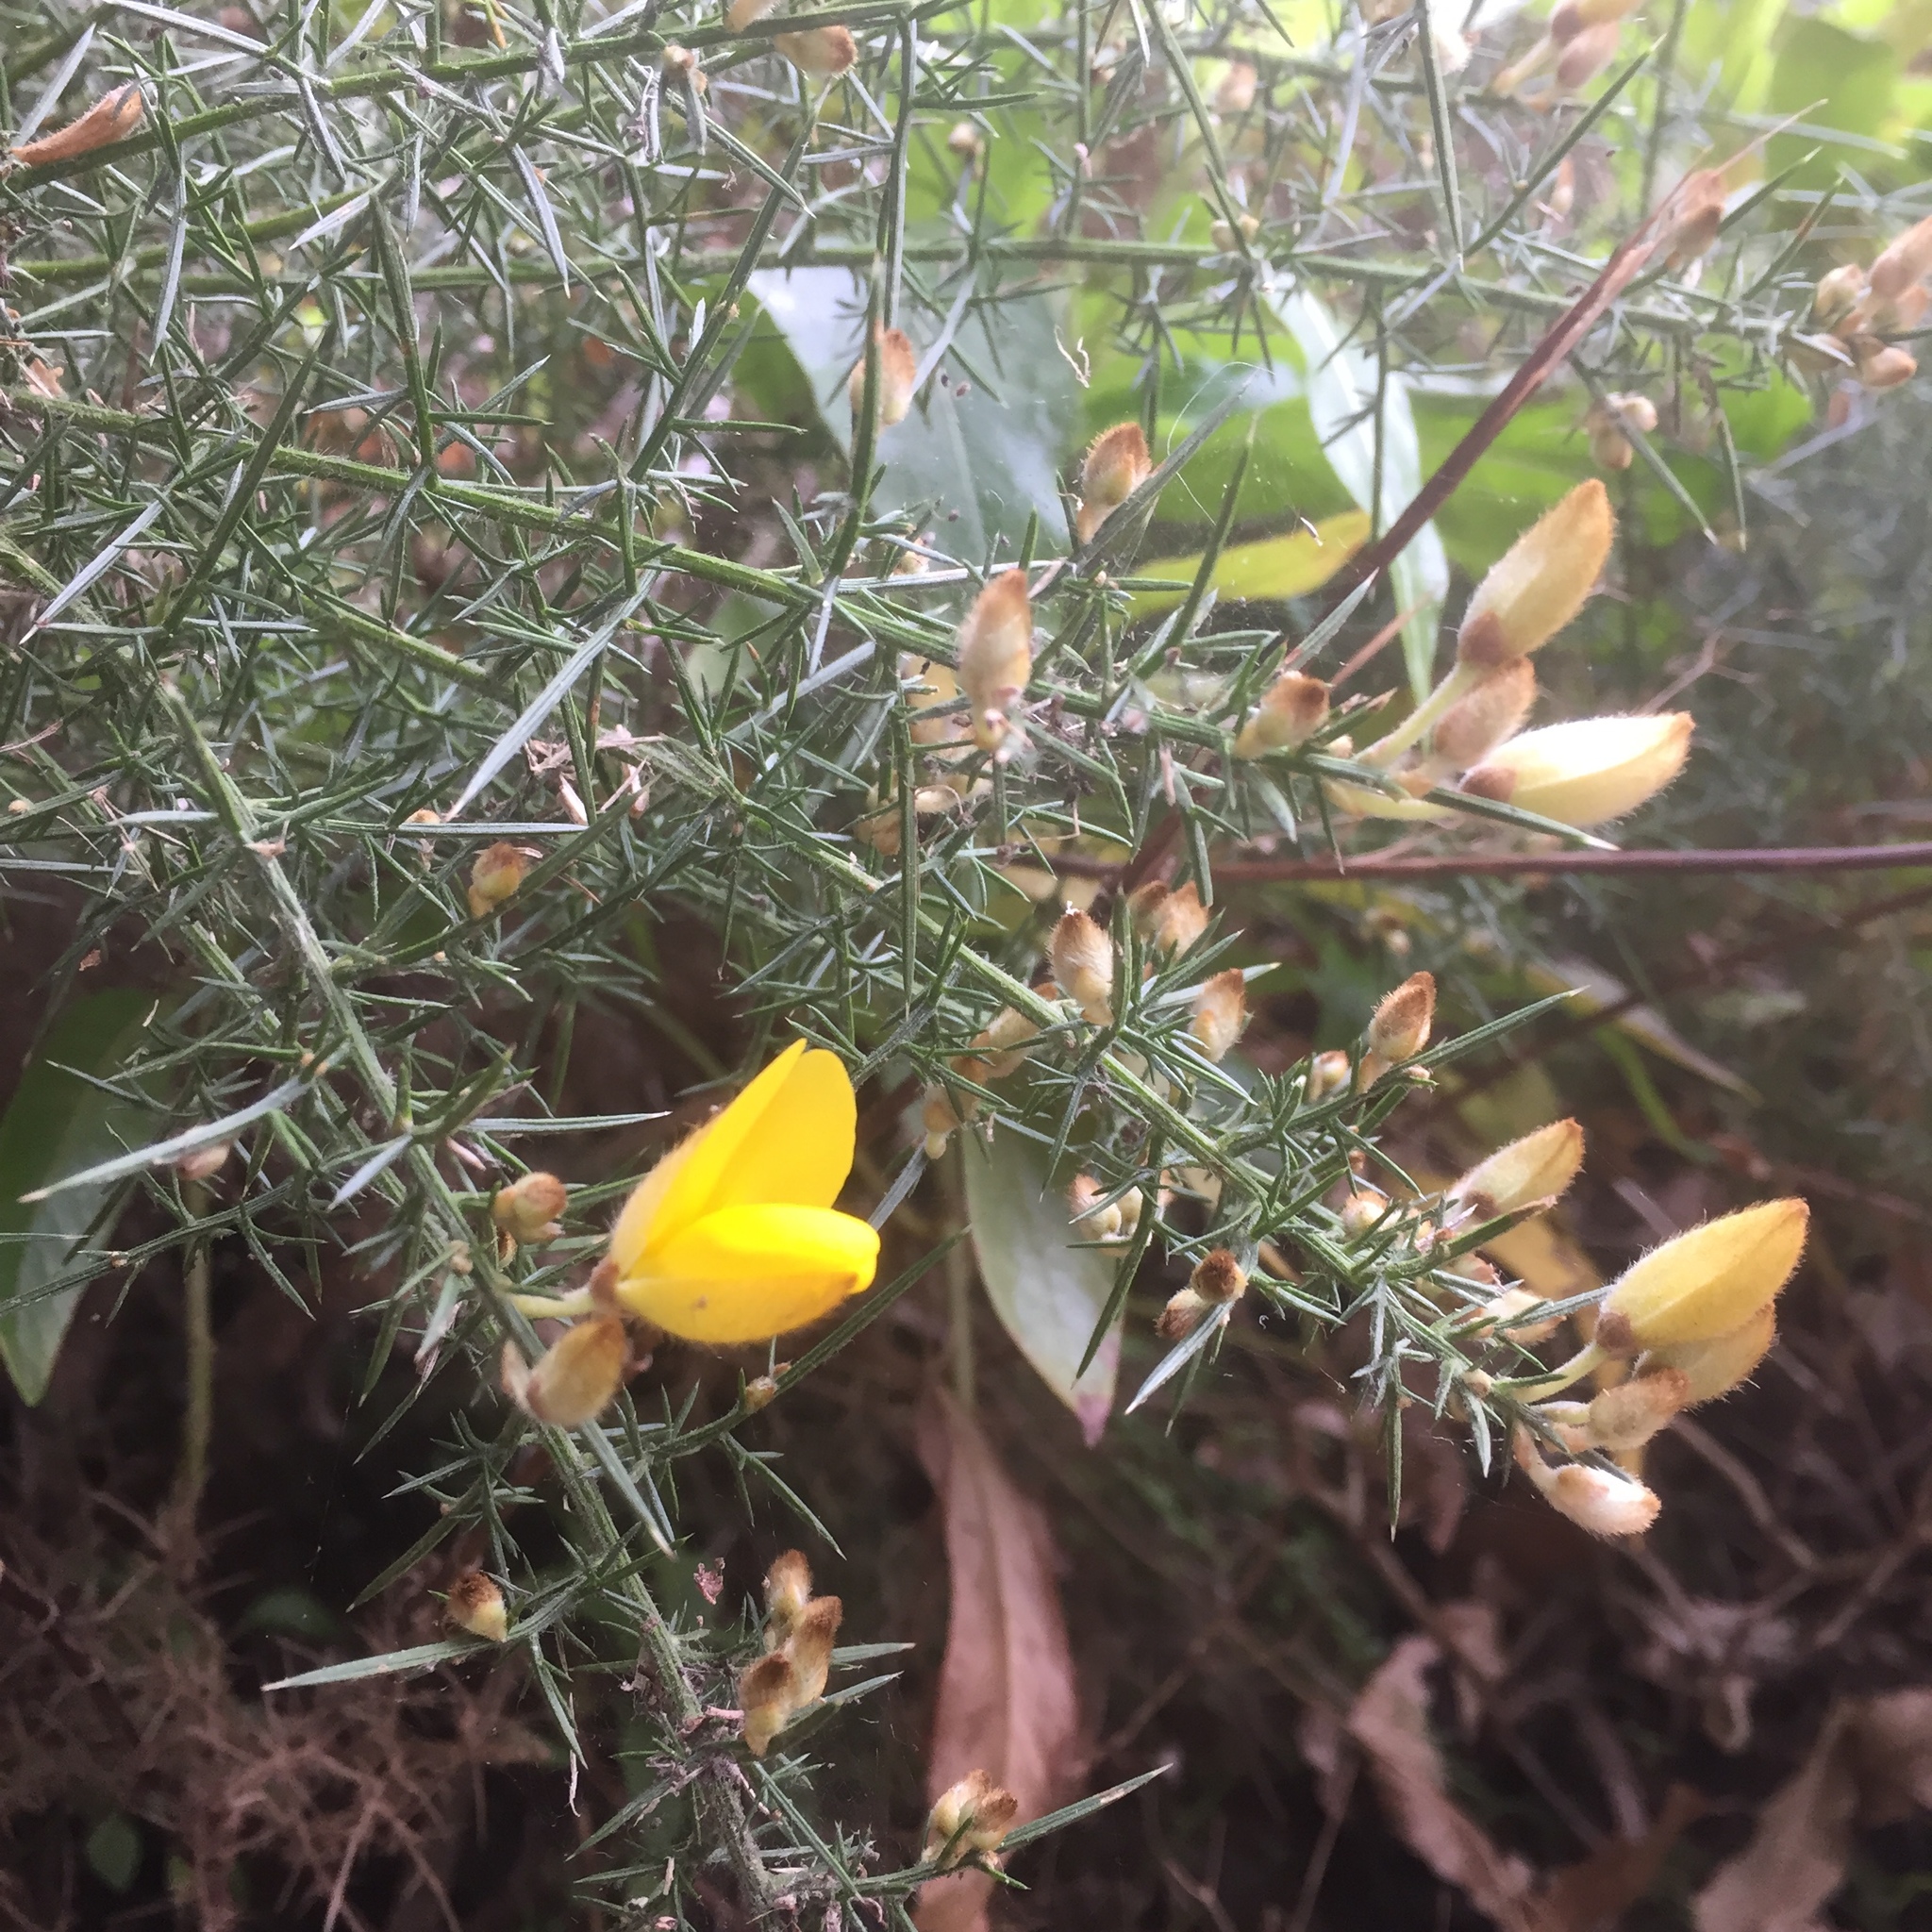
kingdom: Plantae
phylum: Tracheophyta
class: Magnoliopsida
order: Fabales
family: Fabaceae
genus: Ulex
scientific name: Ulex europaeus
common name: Common gorse
